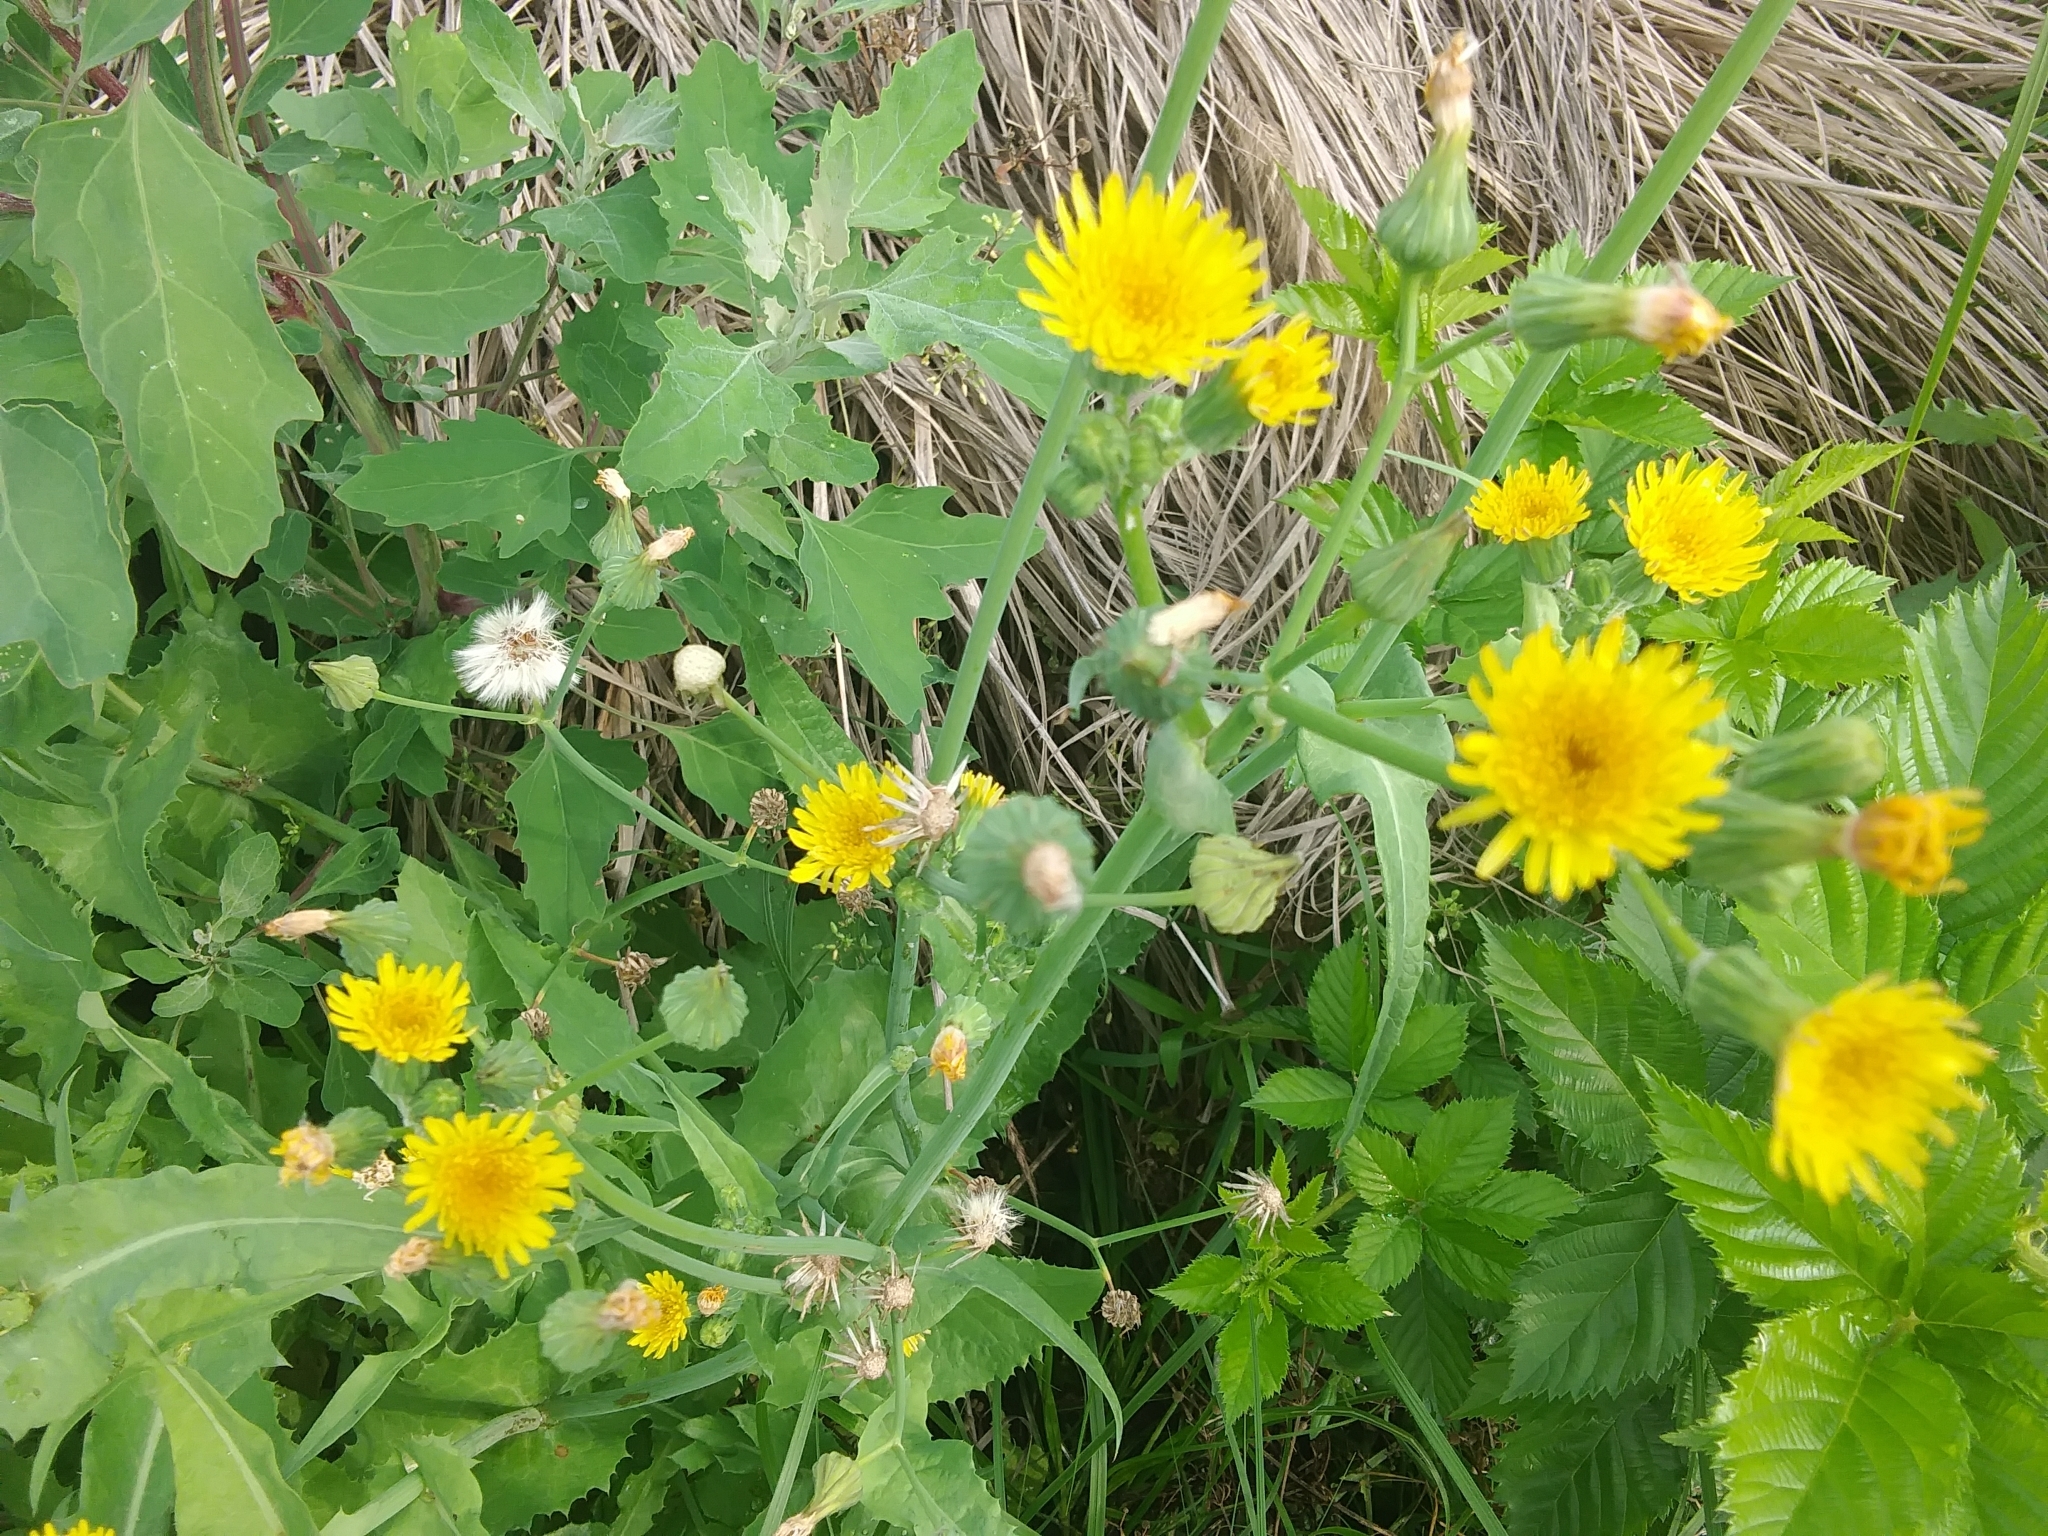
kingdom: Plantae
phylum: Tracheophyta
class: Magnoliopsida
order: Asterales
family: Asteraceae
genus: Sonchus
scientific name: Sonchus oleraceus
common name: Common sowthistle
